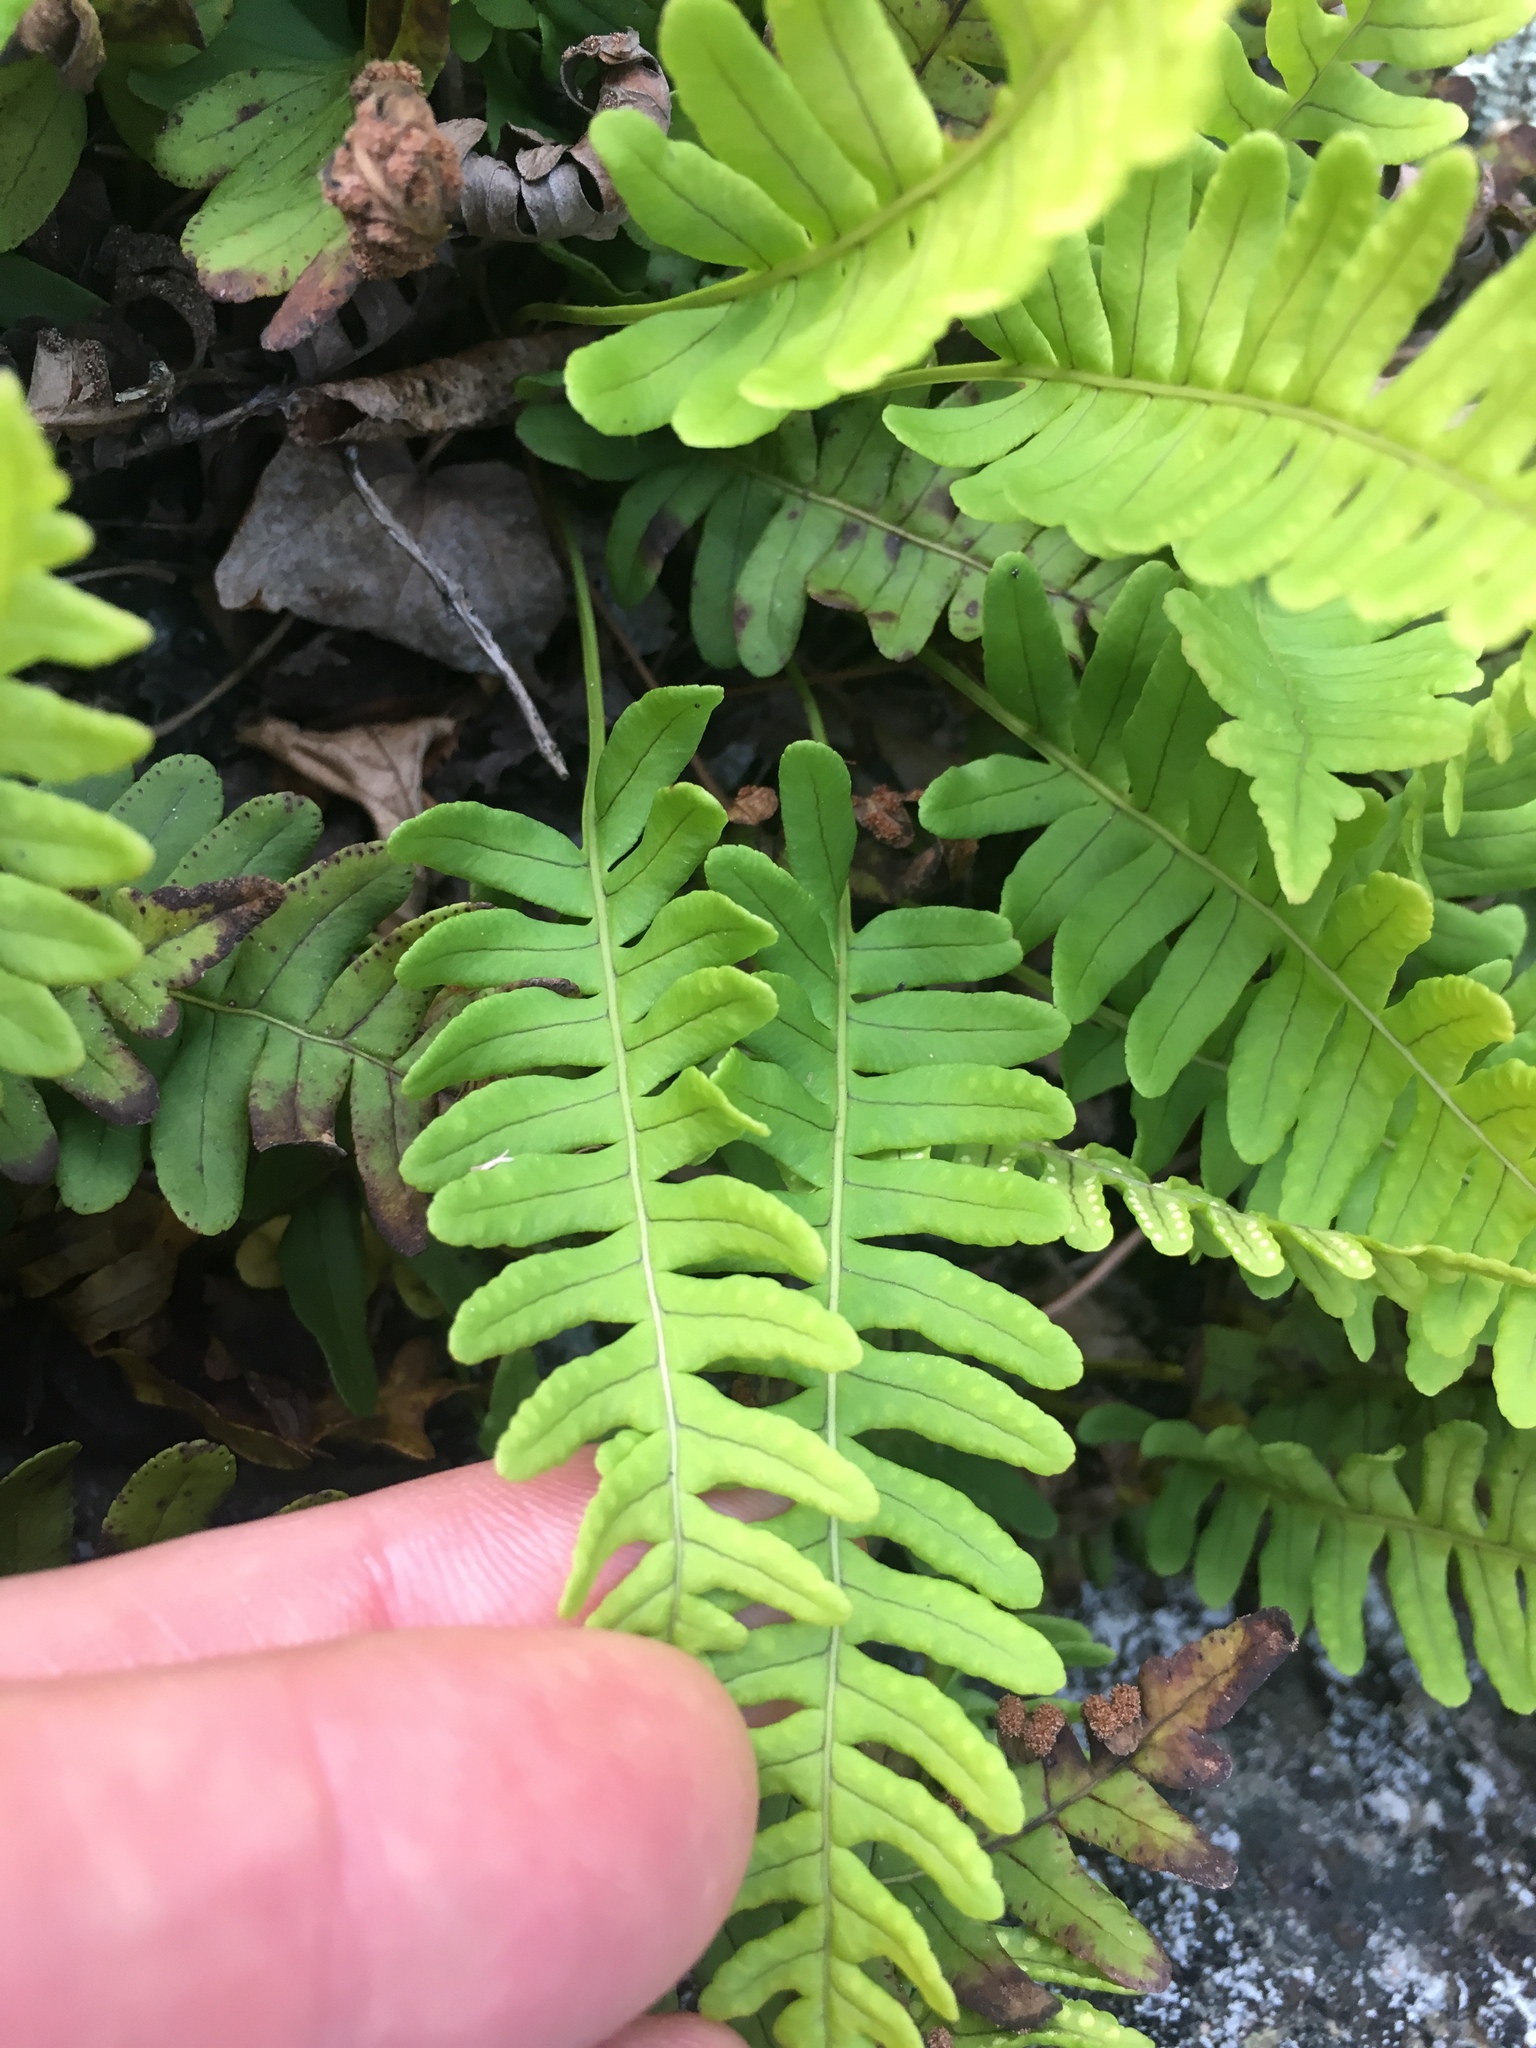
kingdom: Plantae
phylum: Tracheophyta
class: Polypodiopsida
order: Polypodiales
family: Polypodiaceae
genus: Polypodium
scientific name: Polypodium virginianum
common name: American wall fern
